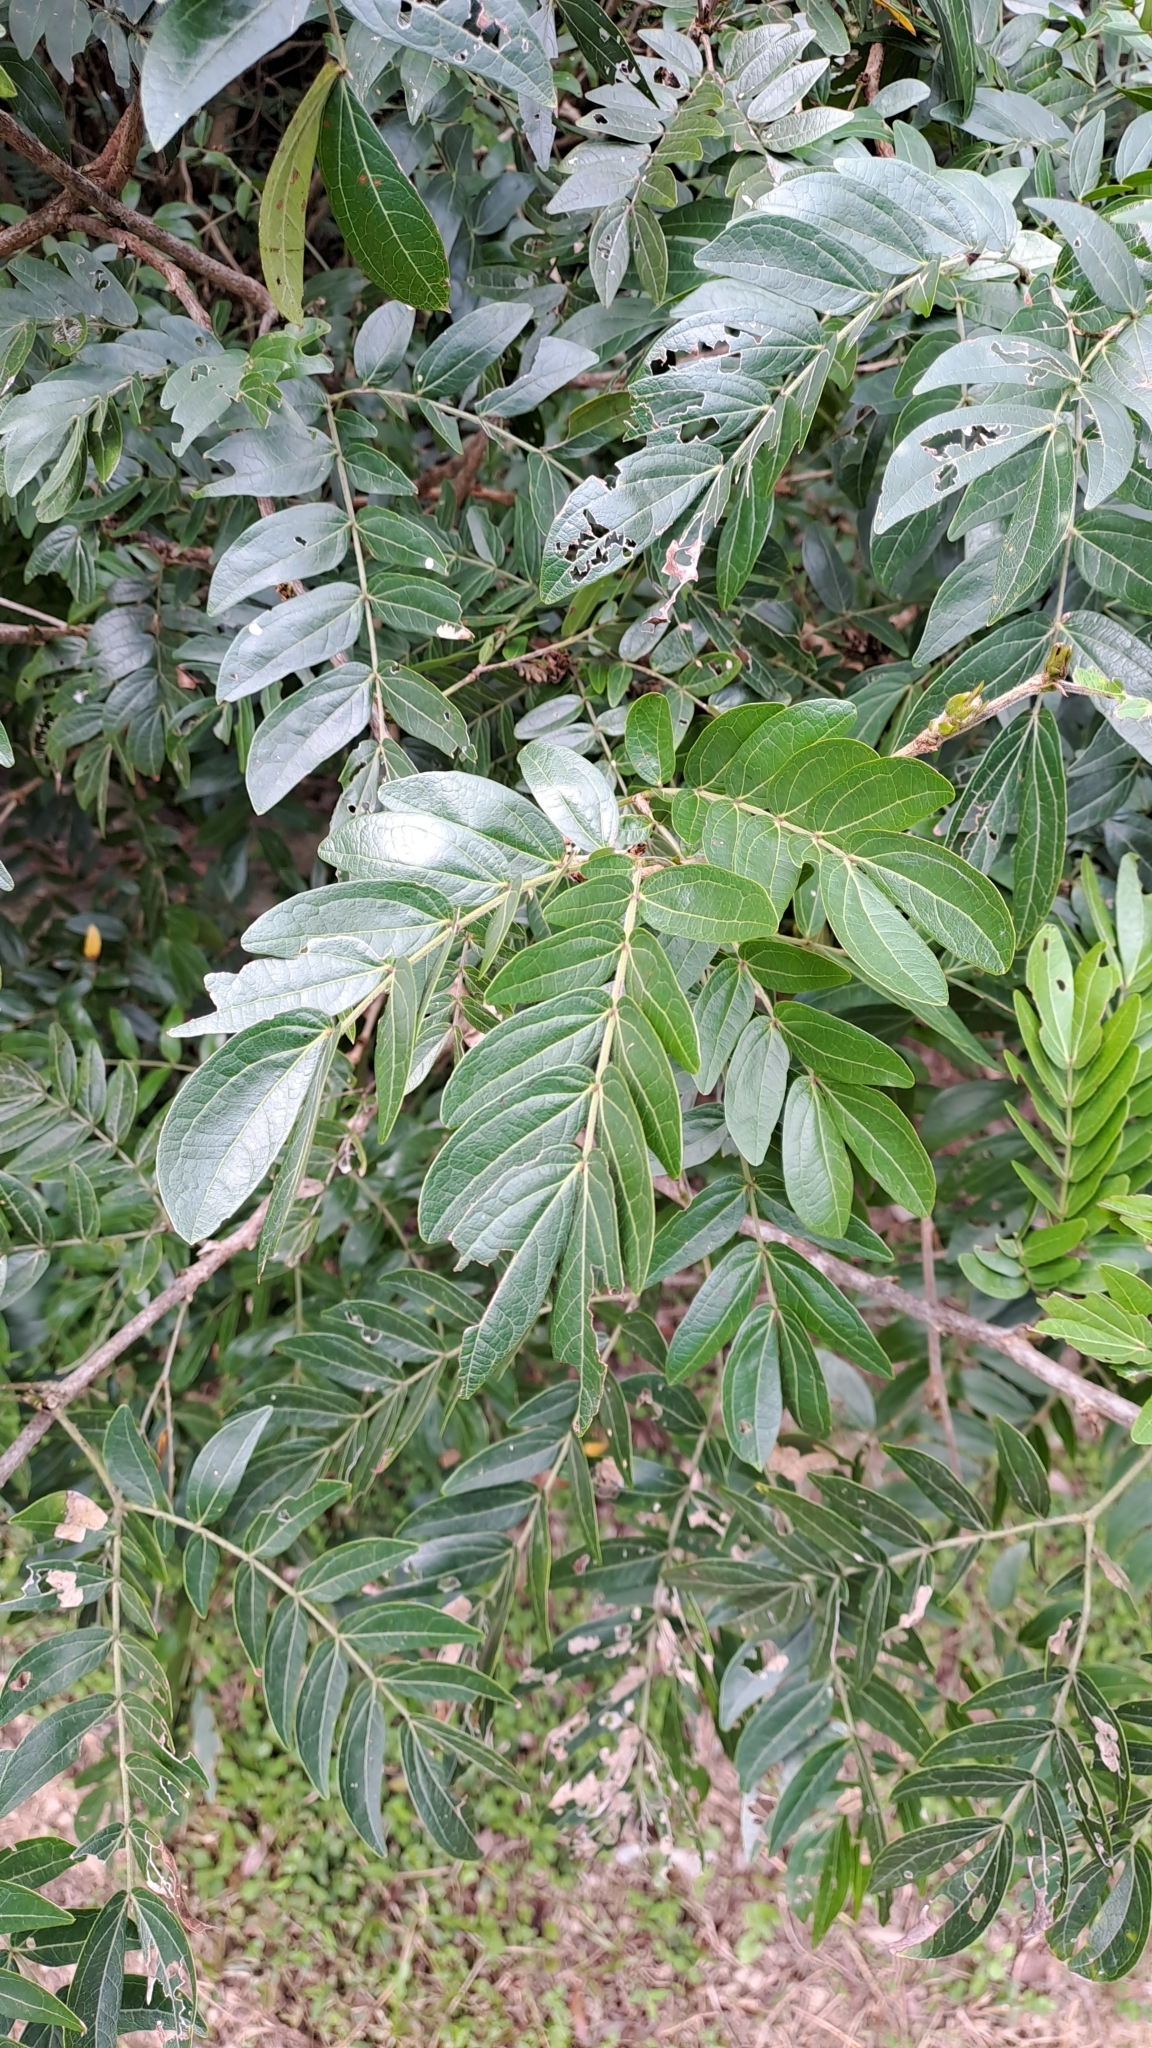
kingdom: Plantae
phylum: Tracheophyta
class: Magnoliopsida
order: Fabales
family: Fabaceae
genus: Calliandra
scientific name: Calliandra haematocephala
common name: Blood red tassel flower
